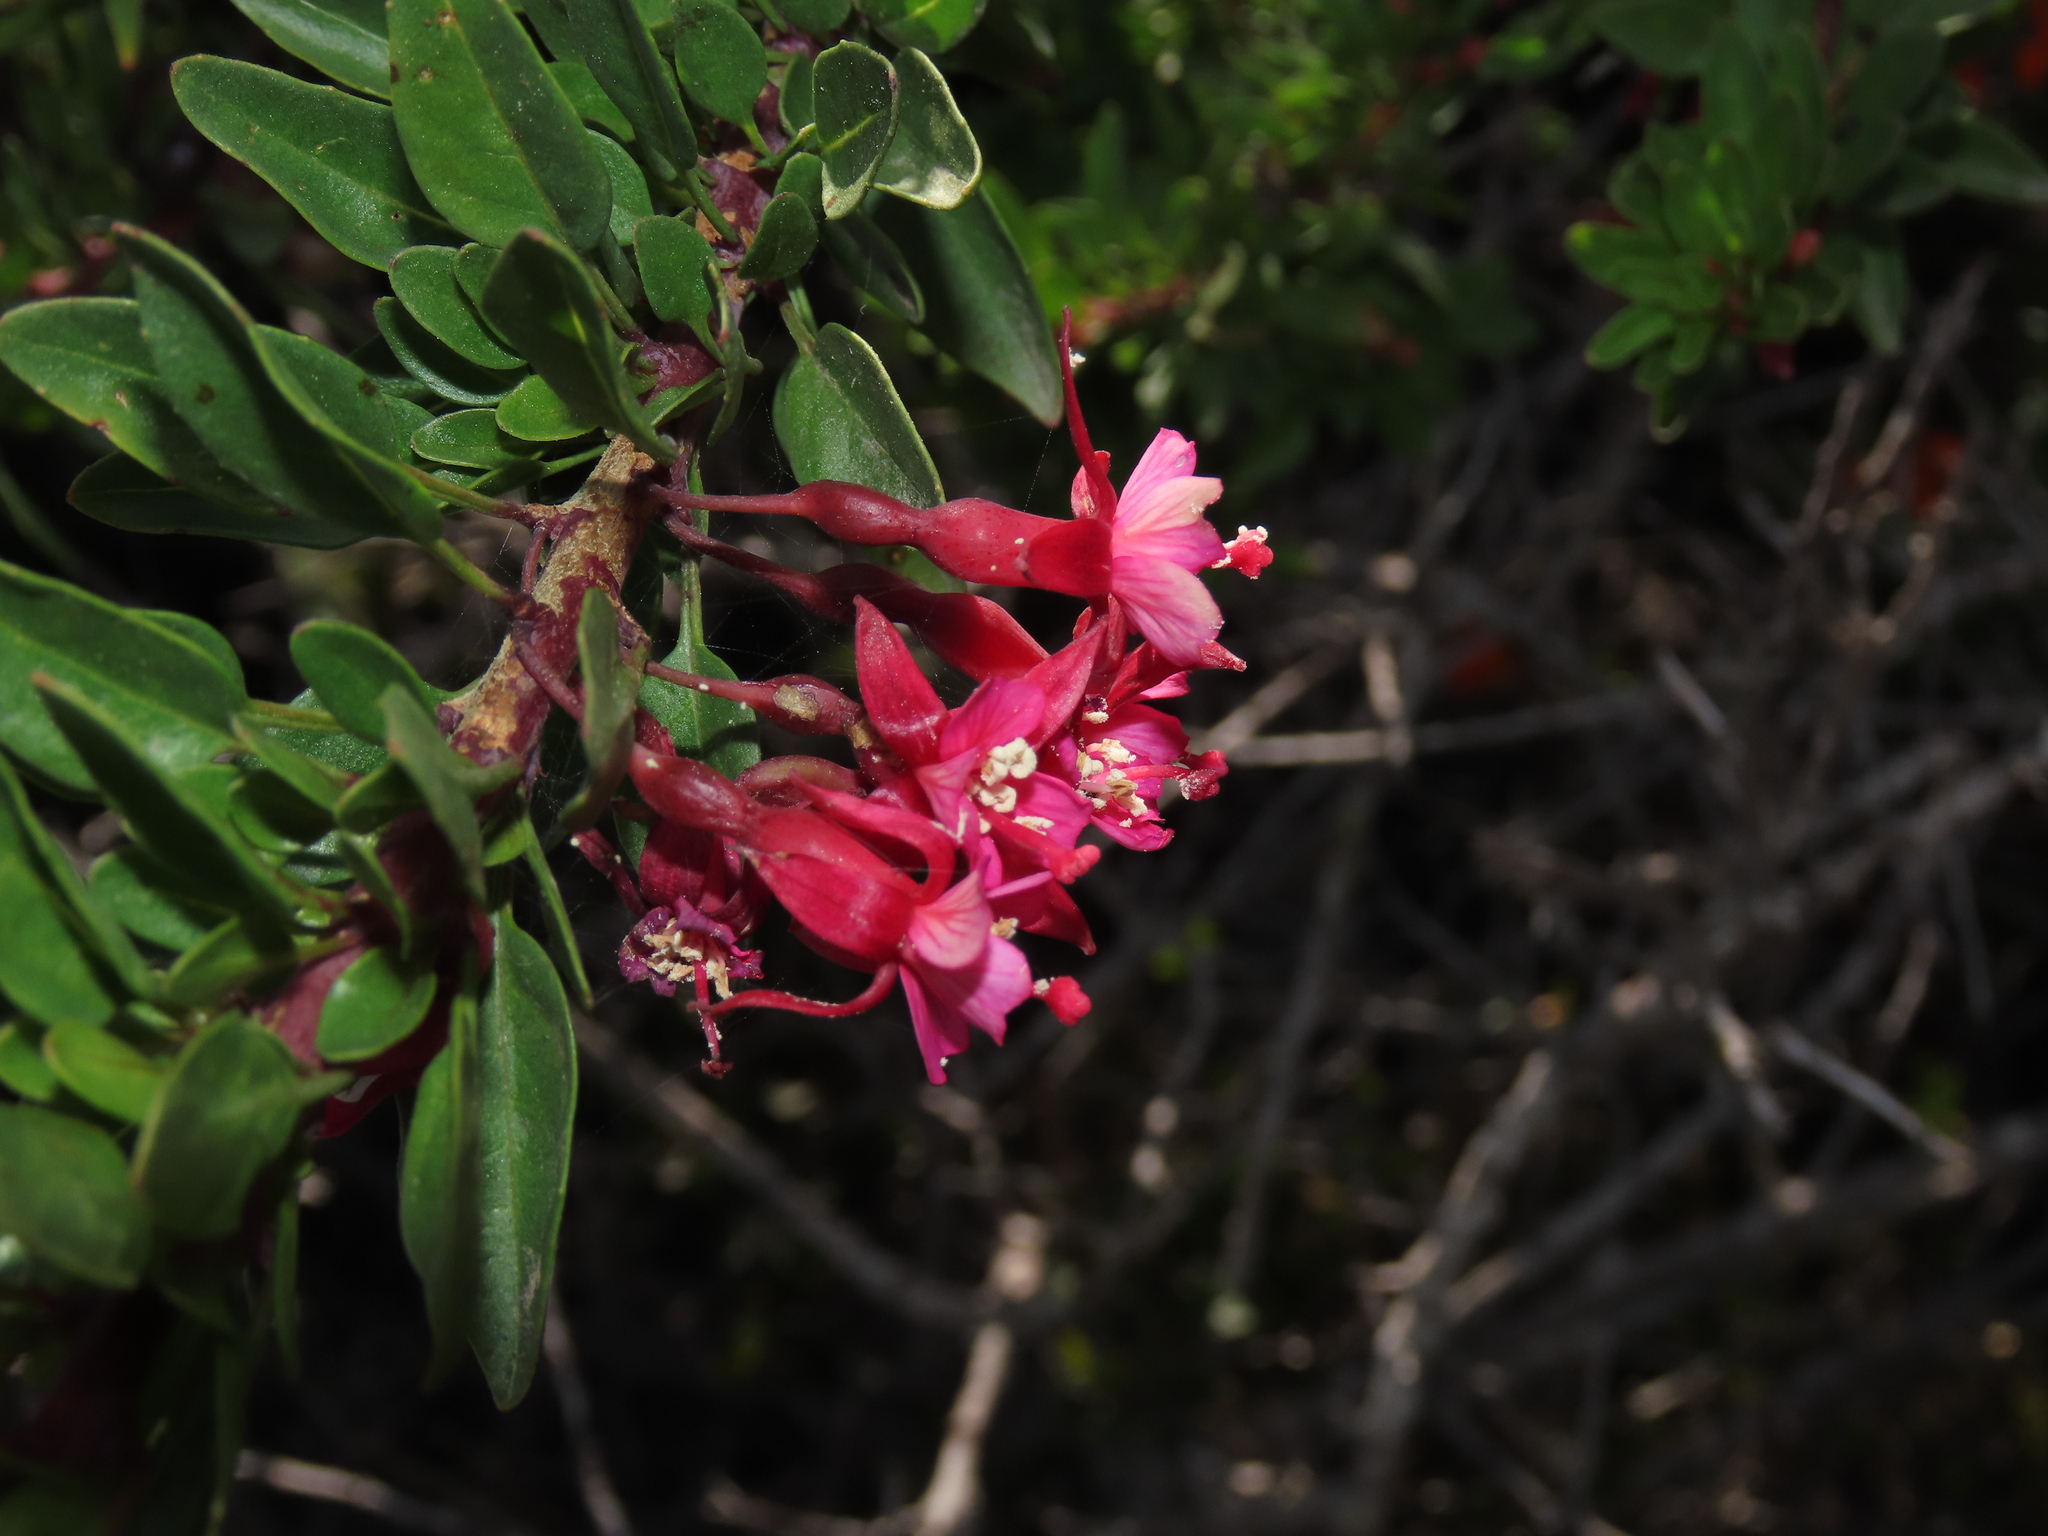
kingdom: Plantae
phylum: Tracheophyta
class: Magnoliopsida
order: Myrtales
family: Onagraceae
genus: Fuchsia
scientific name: Fuchsia lycioides
